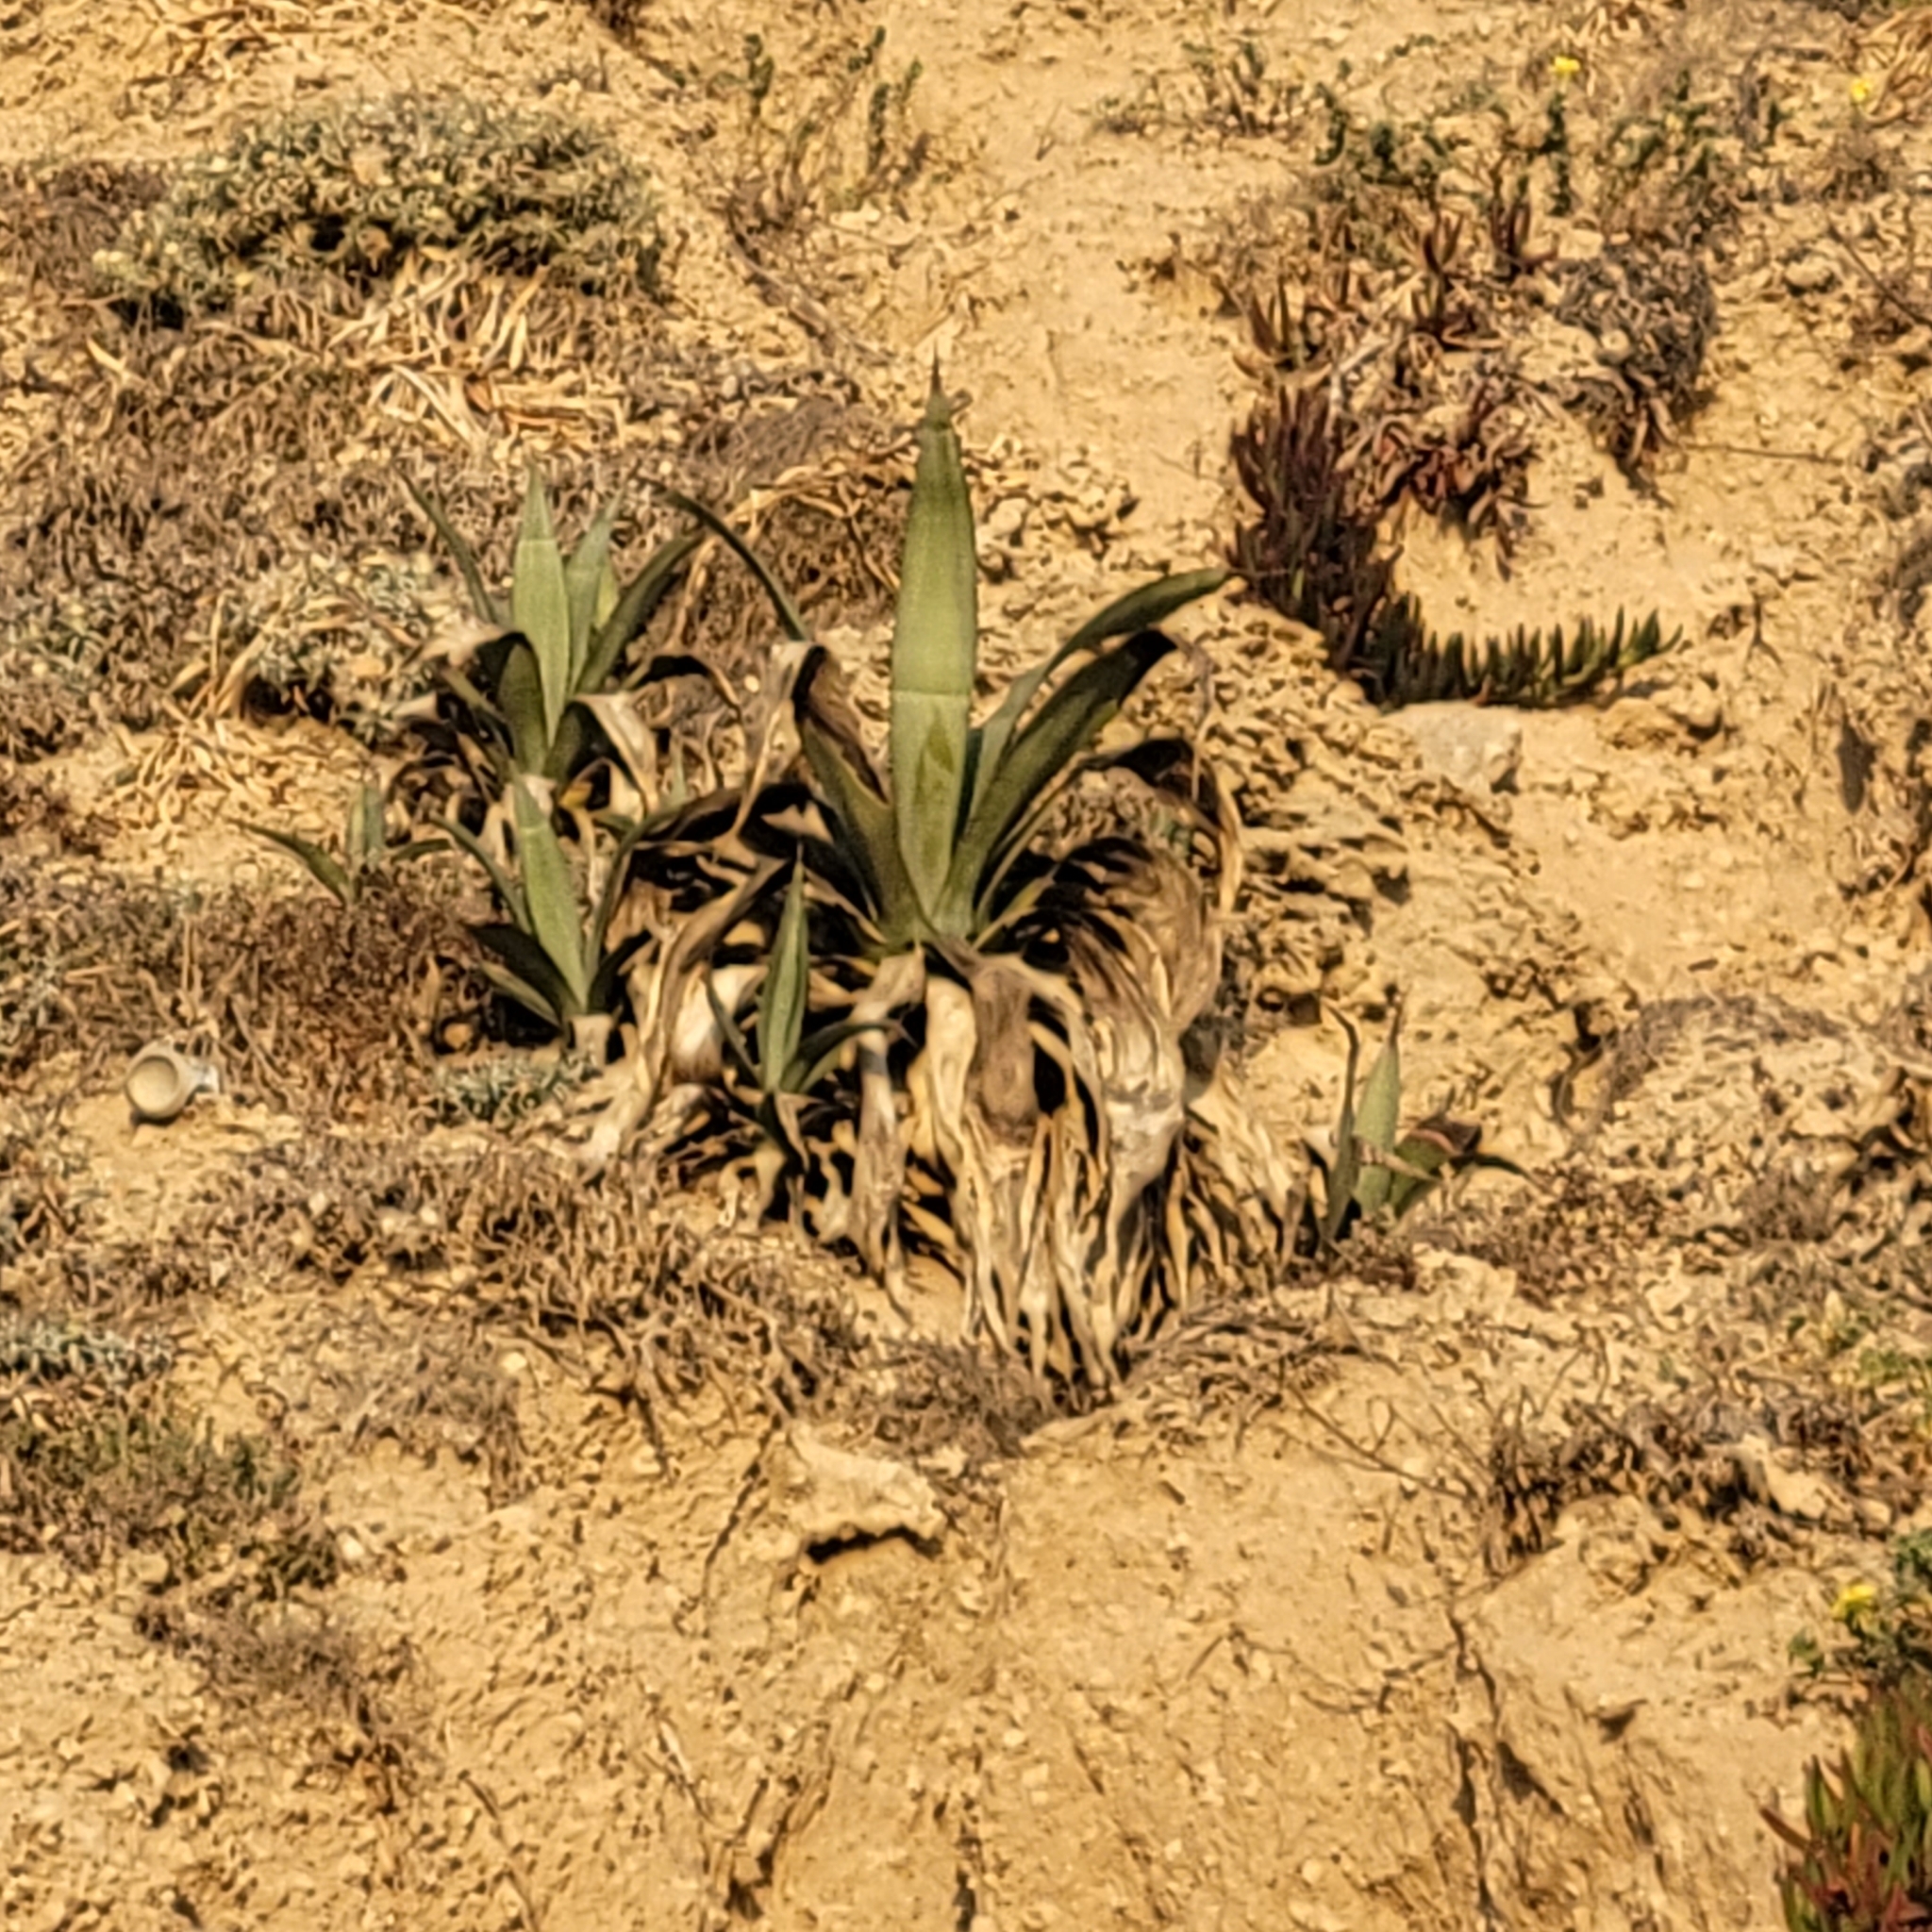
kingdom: Plantae
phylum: Tracheophyta
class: Liliopsida
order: Asparagales
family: Asparagaceae
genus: Agave
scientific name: Agave americana
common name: Centuryplant
